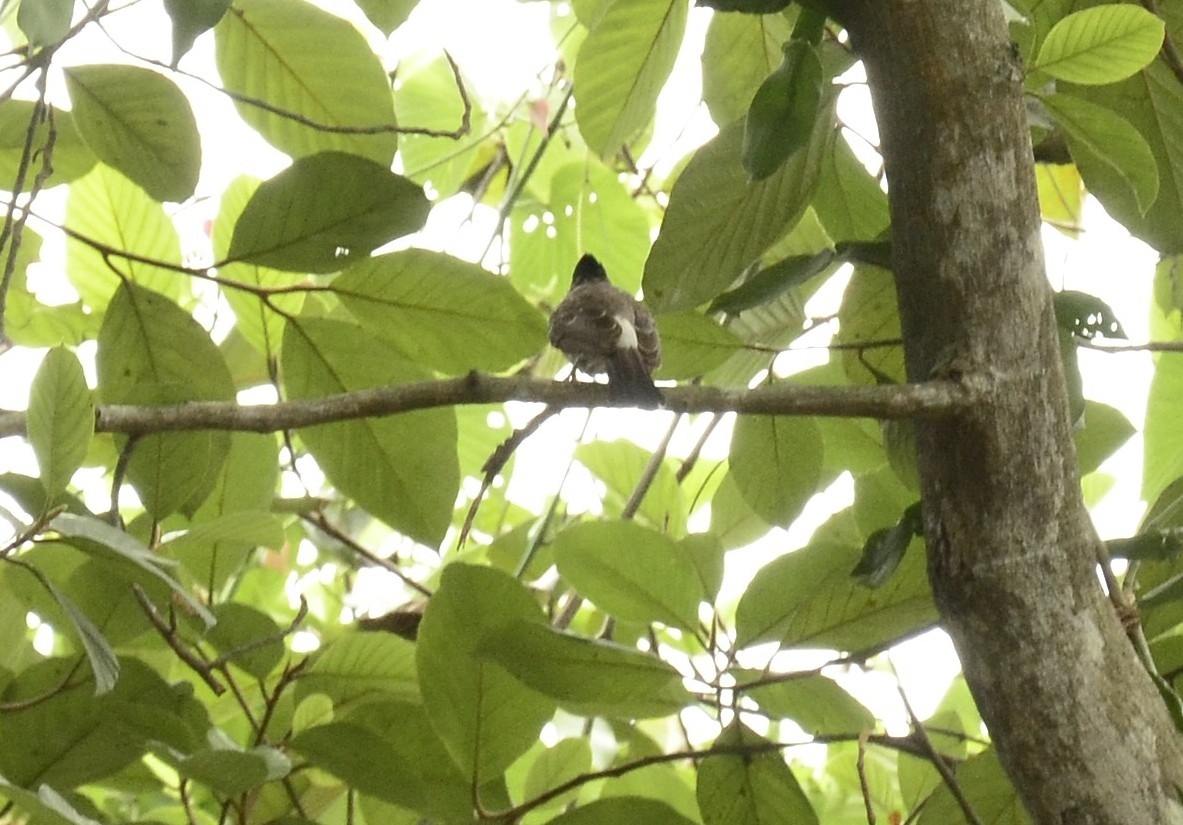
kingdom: Animalia
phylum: Chordata
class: Aves
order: Passeriformes
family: Pycnonotidae
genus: Pycnonotus
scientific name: Pycnonotus cafer
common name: Red-vented bulbul
